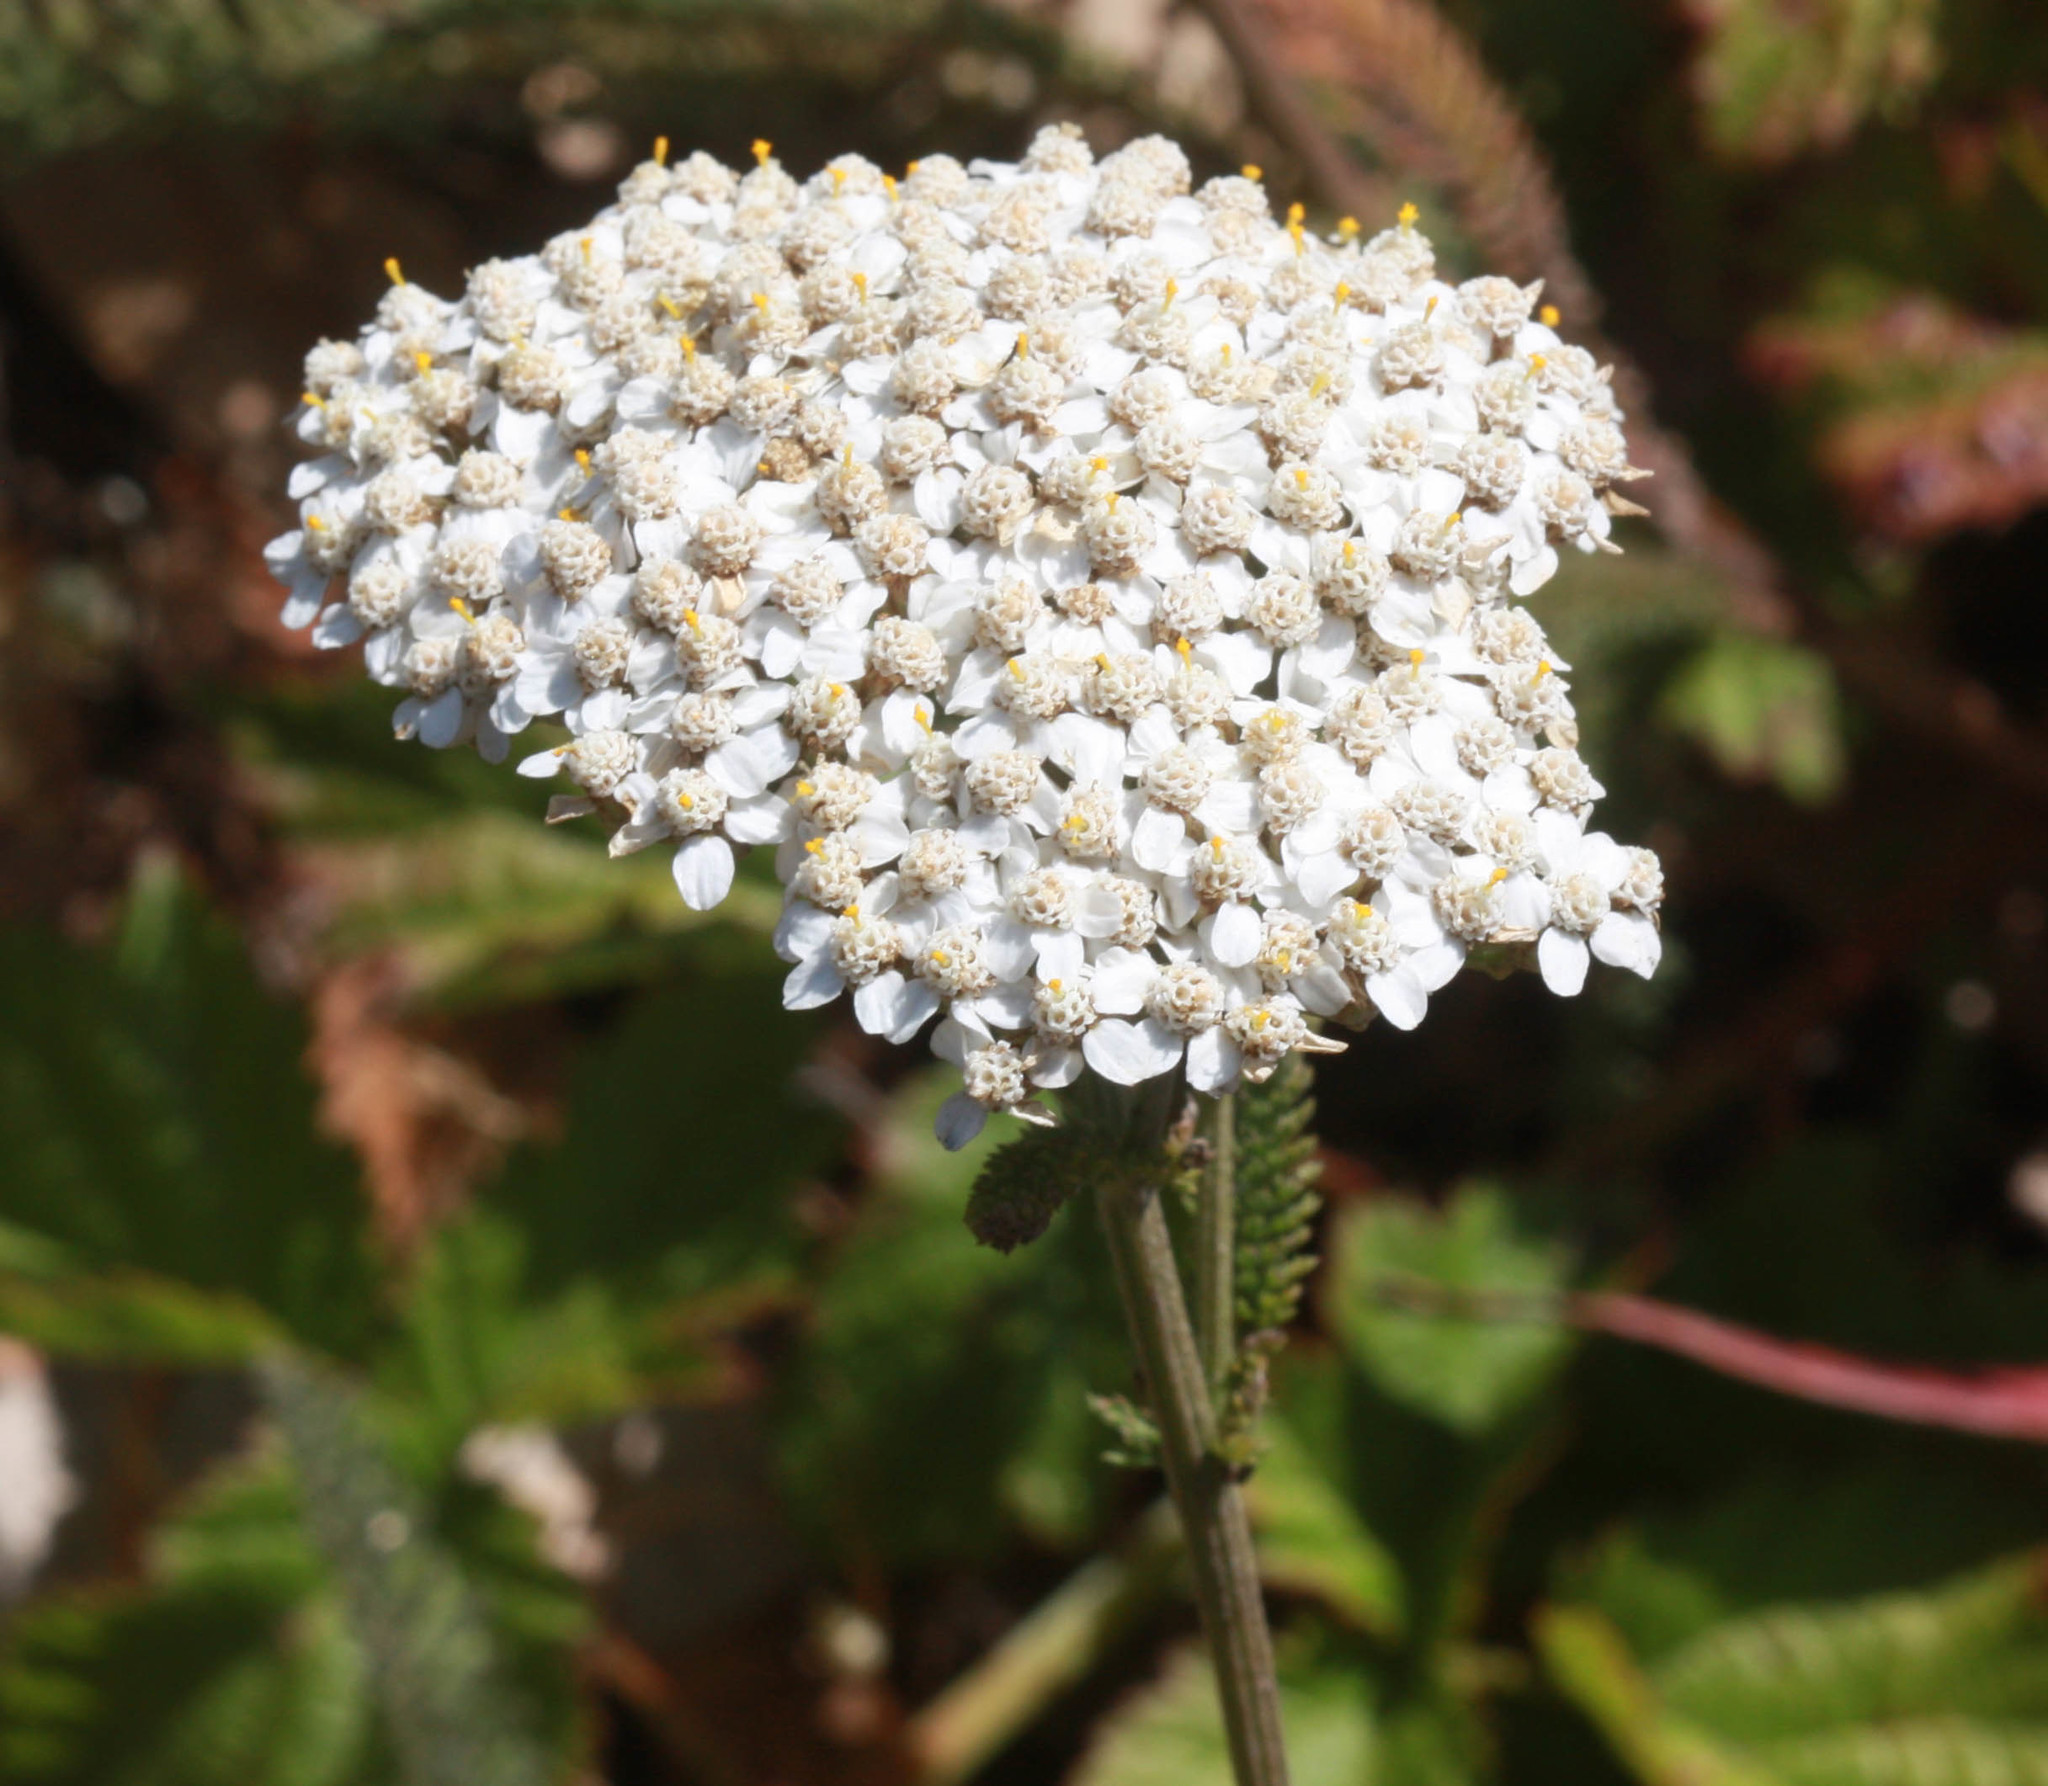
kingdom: Plantae
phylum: Tracheophyta
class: Magnoliopsida
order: Asterales
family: Asteraceae
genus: Achillea
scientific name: Achillea millefolium
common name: Yarrow
